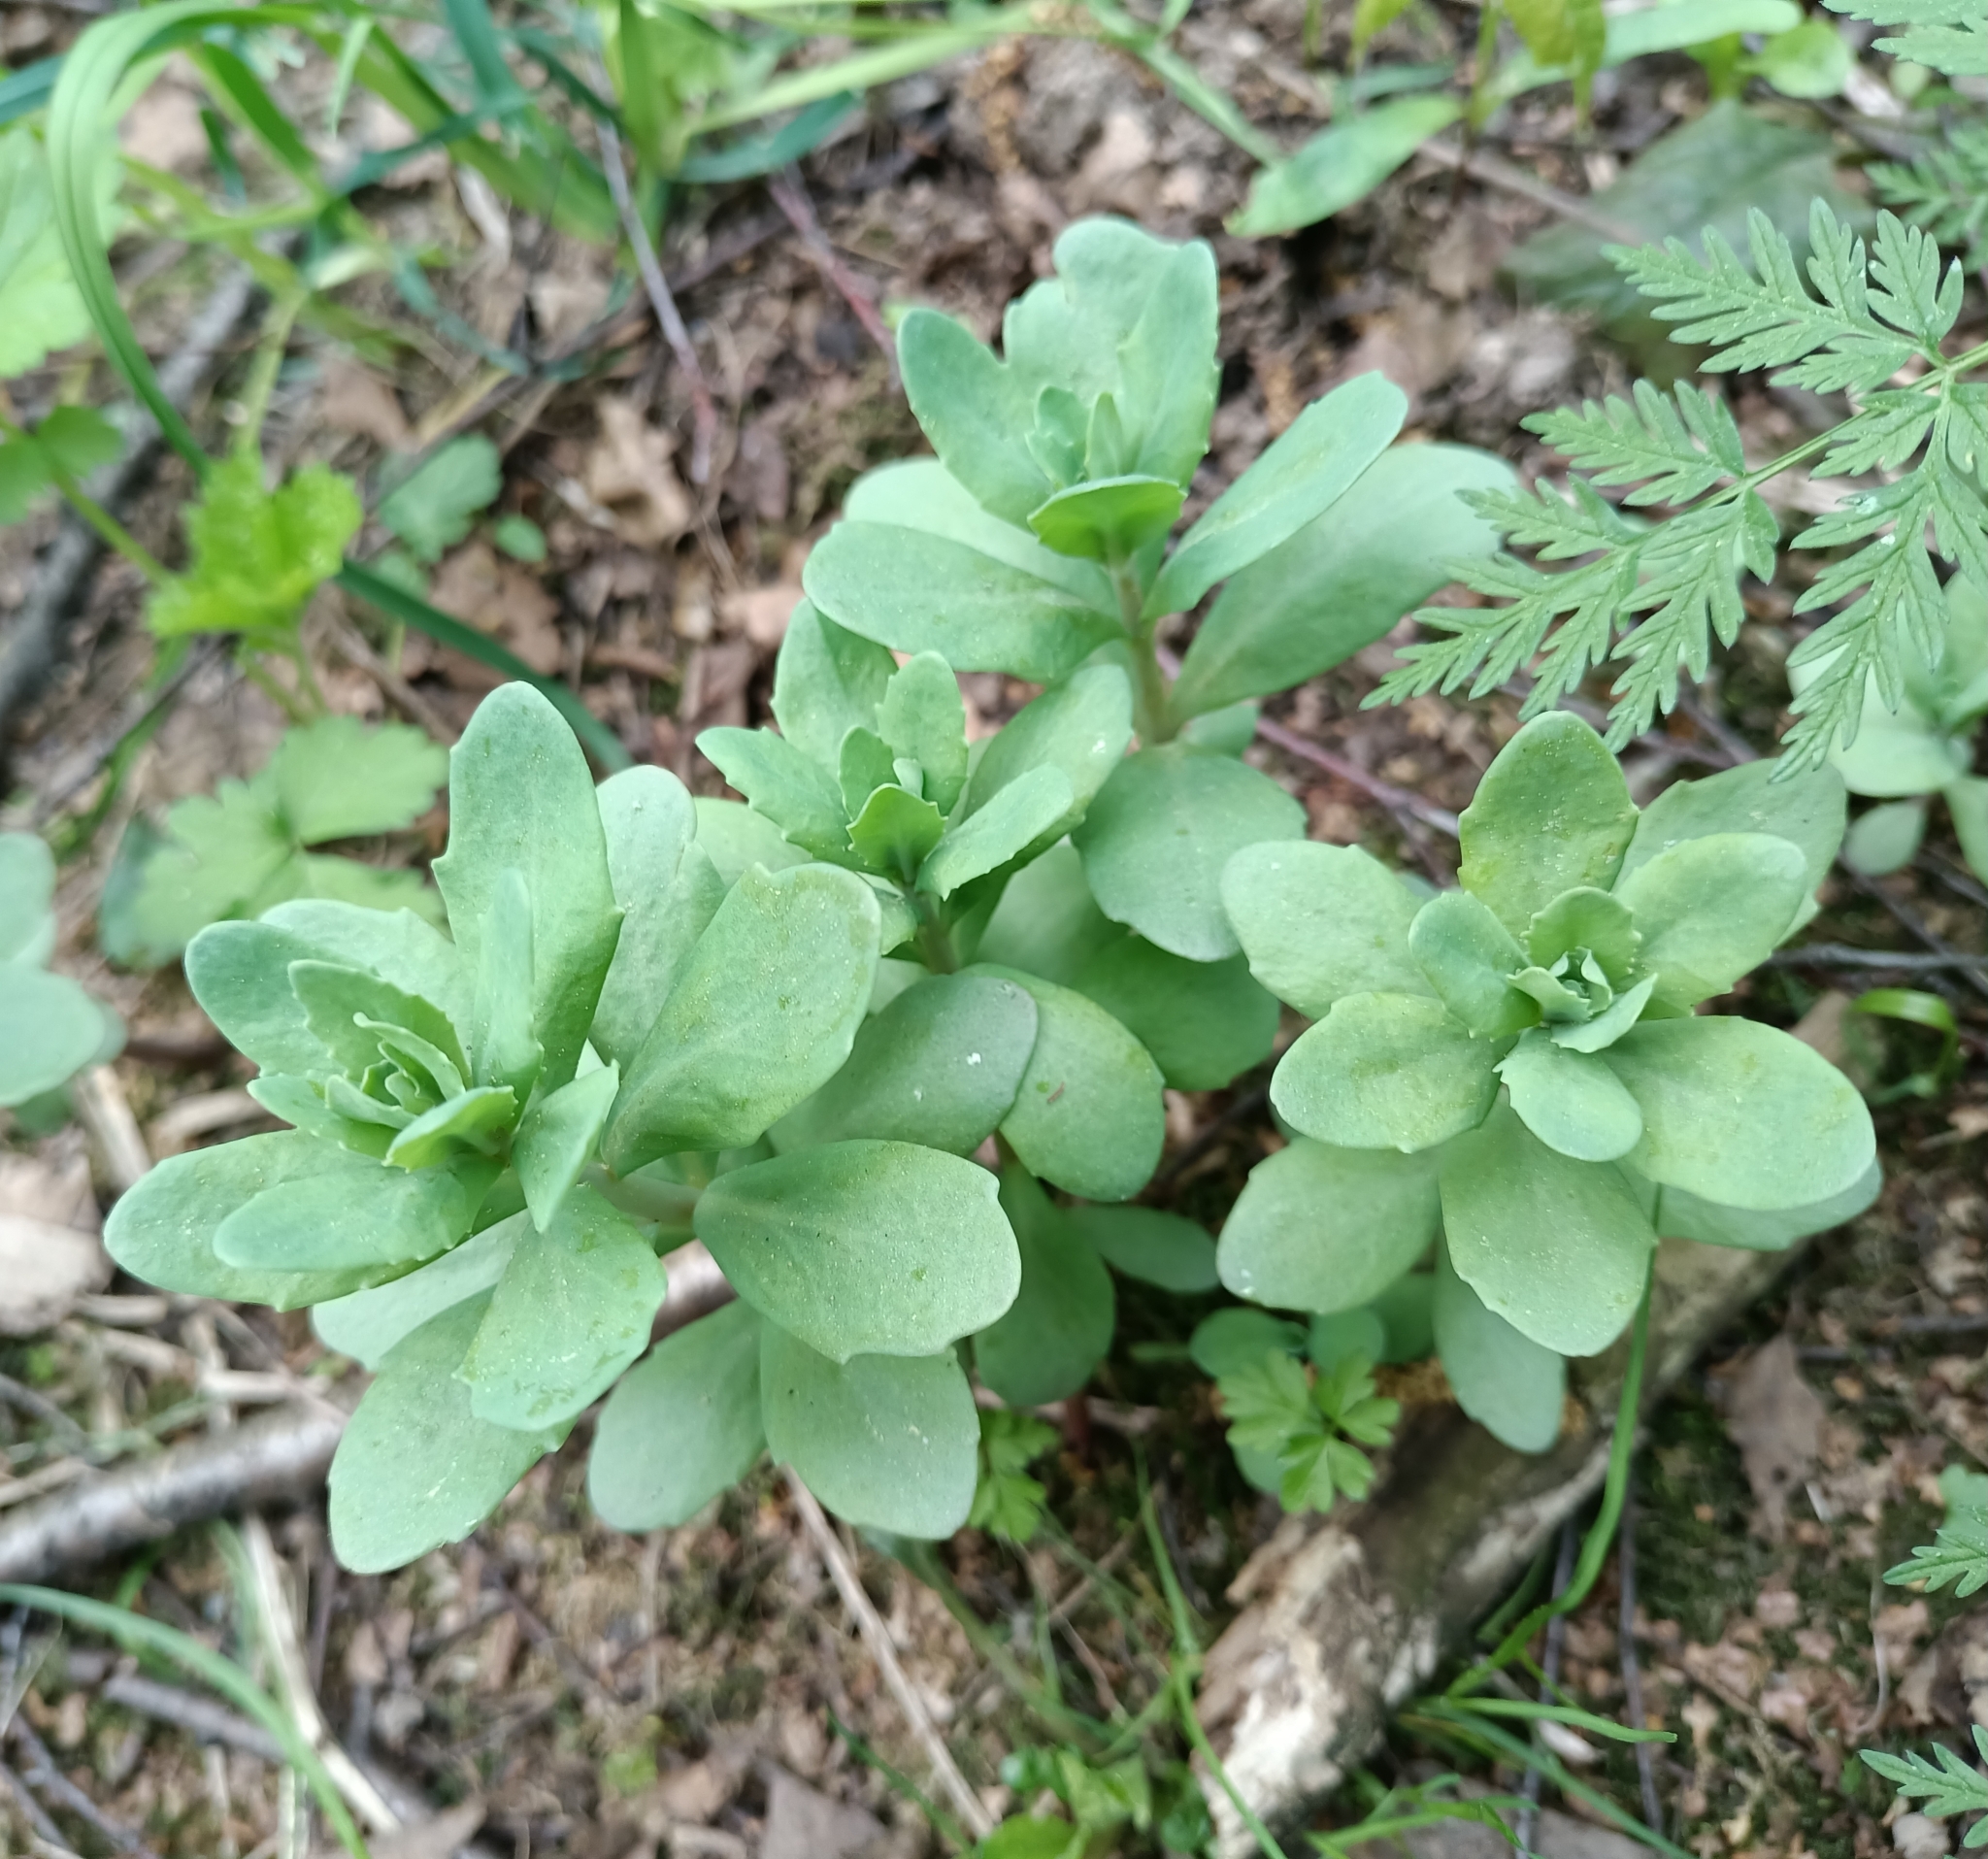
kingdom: Plantae
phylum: Tracheophyta
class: Magnoliopsida
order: Saxifragales
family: Crassulaceae
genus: Hylotelephium
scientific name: Hylotelephium telephium
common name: Live-forever
